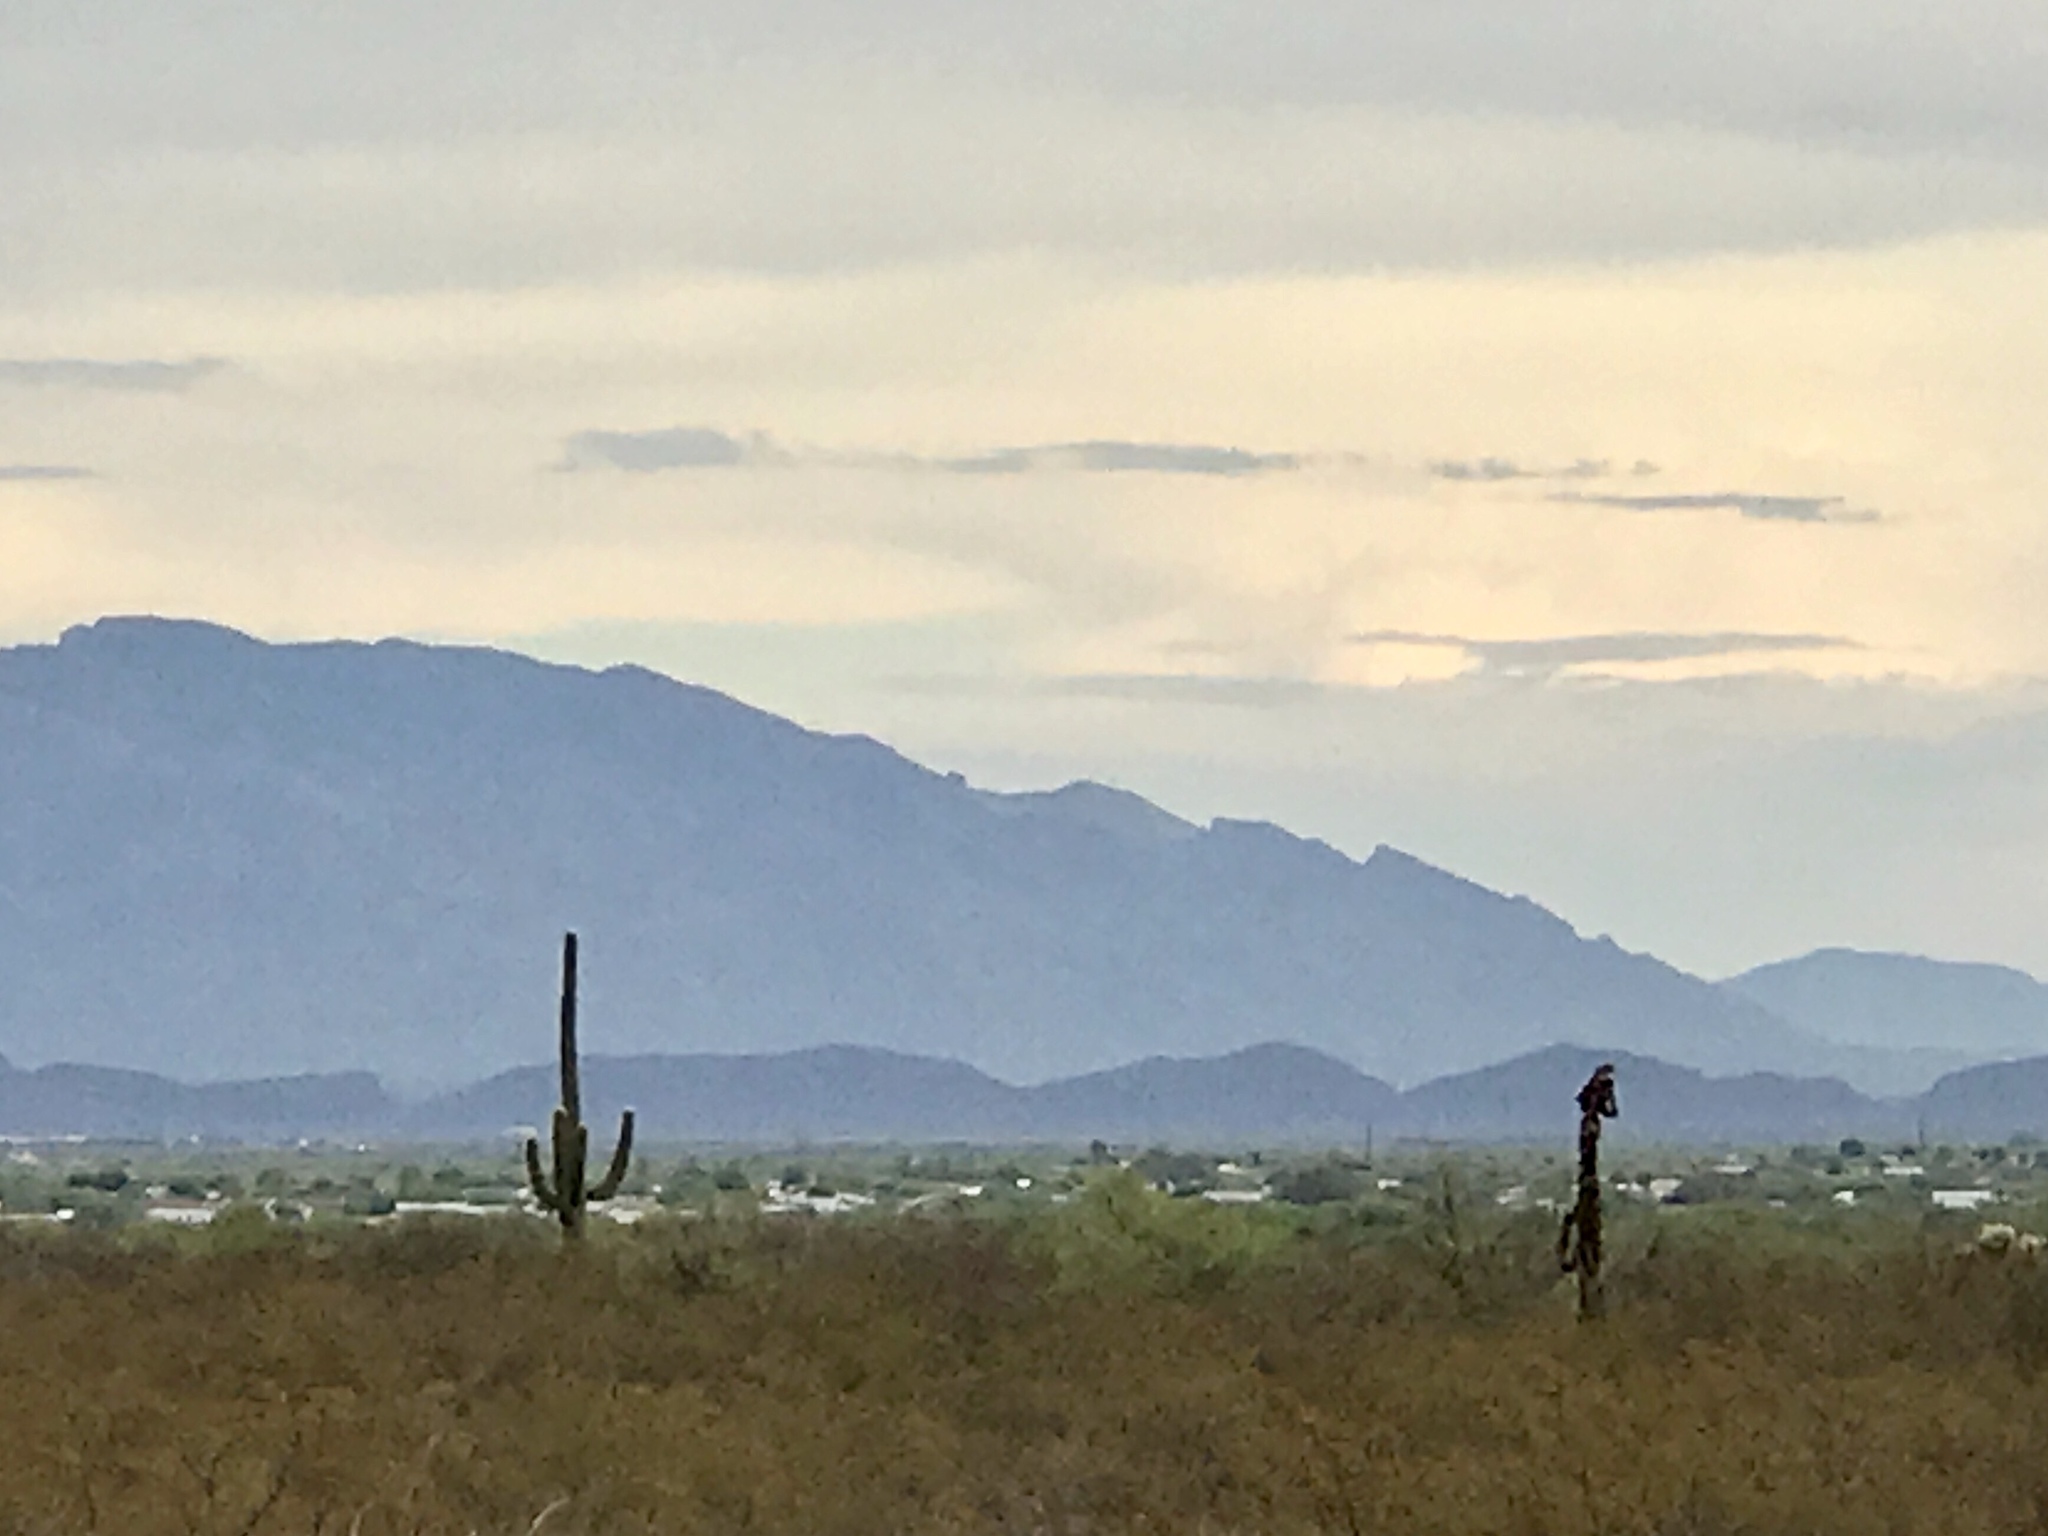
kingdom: Plantae
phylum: Tracheophyta
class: Magnoliopsida
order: Caryophyllales
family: Cactaceae
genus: Carnegiea
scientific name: Carnegiea gigantea
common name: Saguaro
